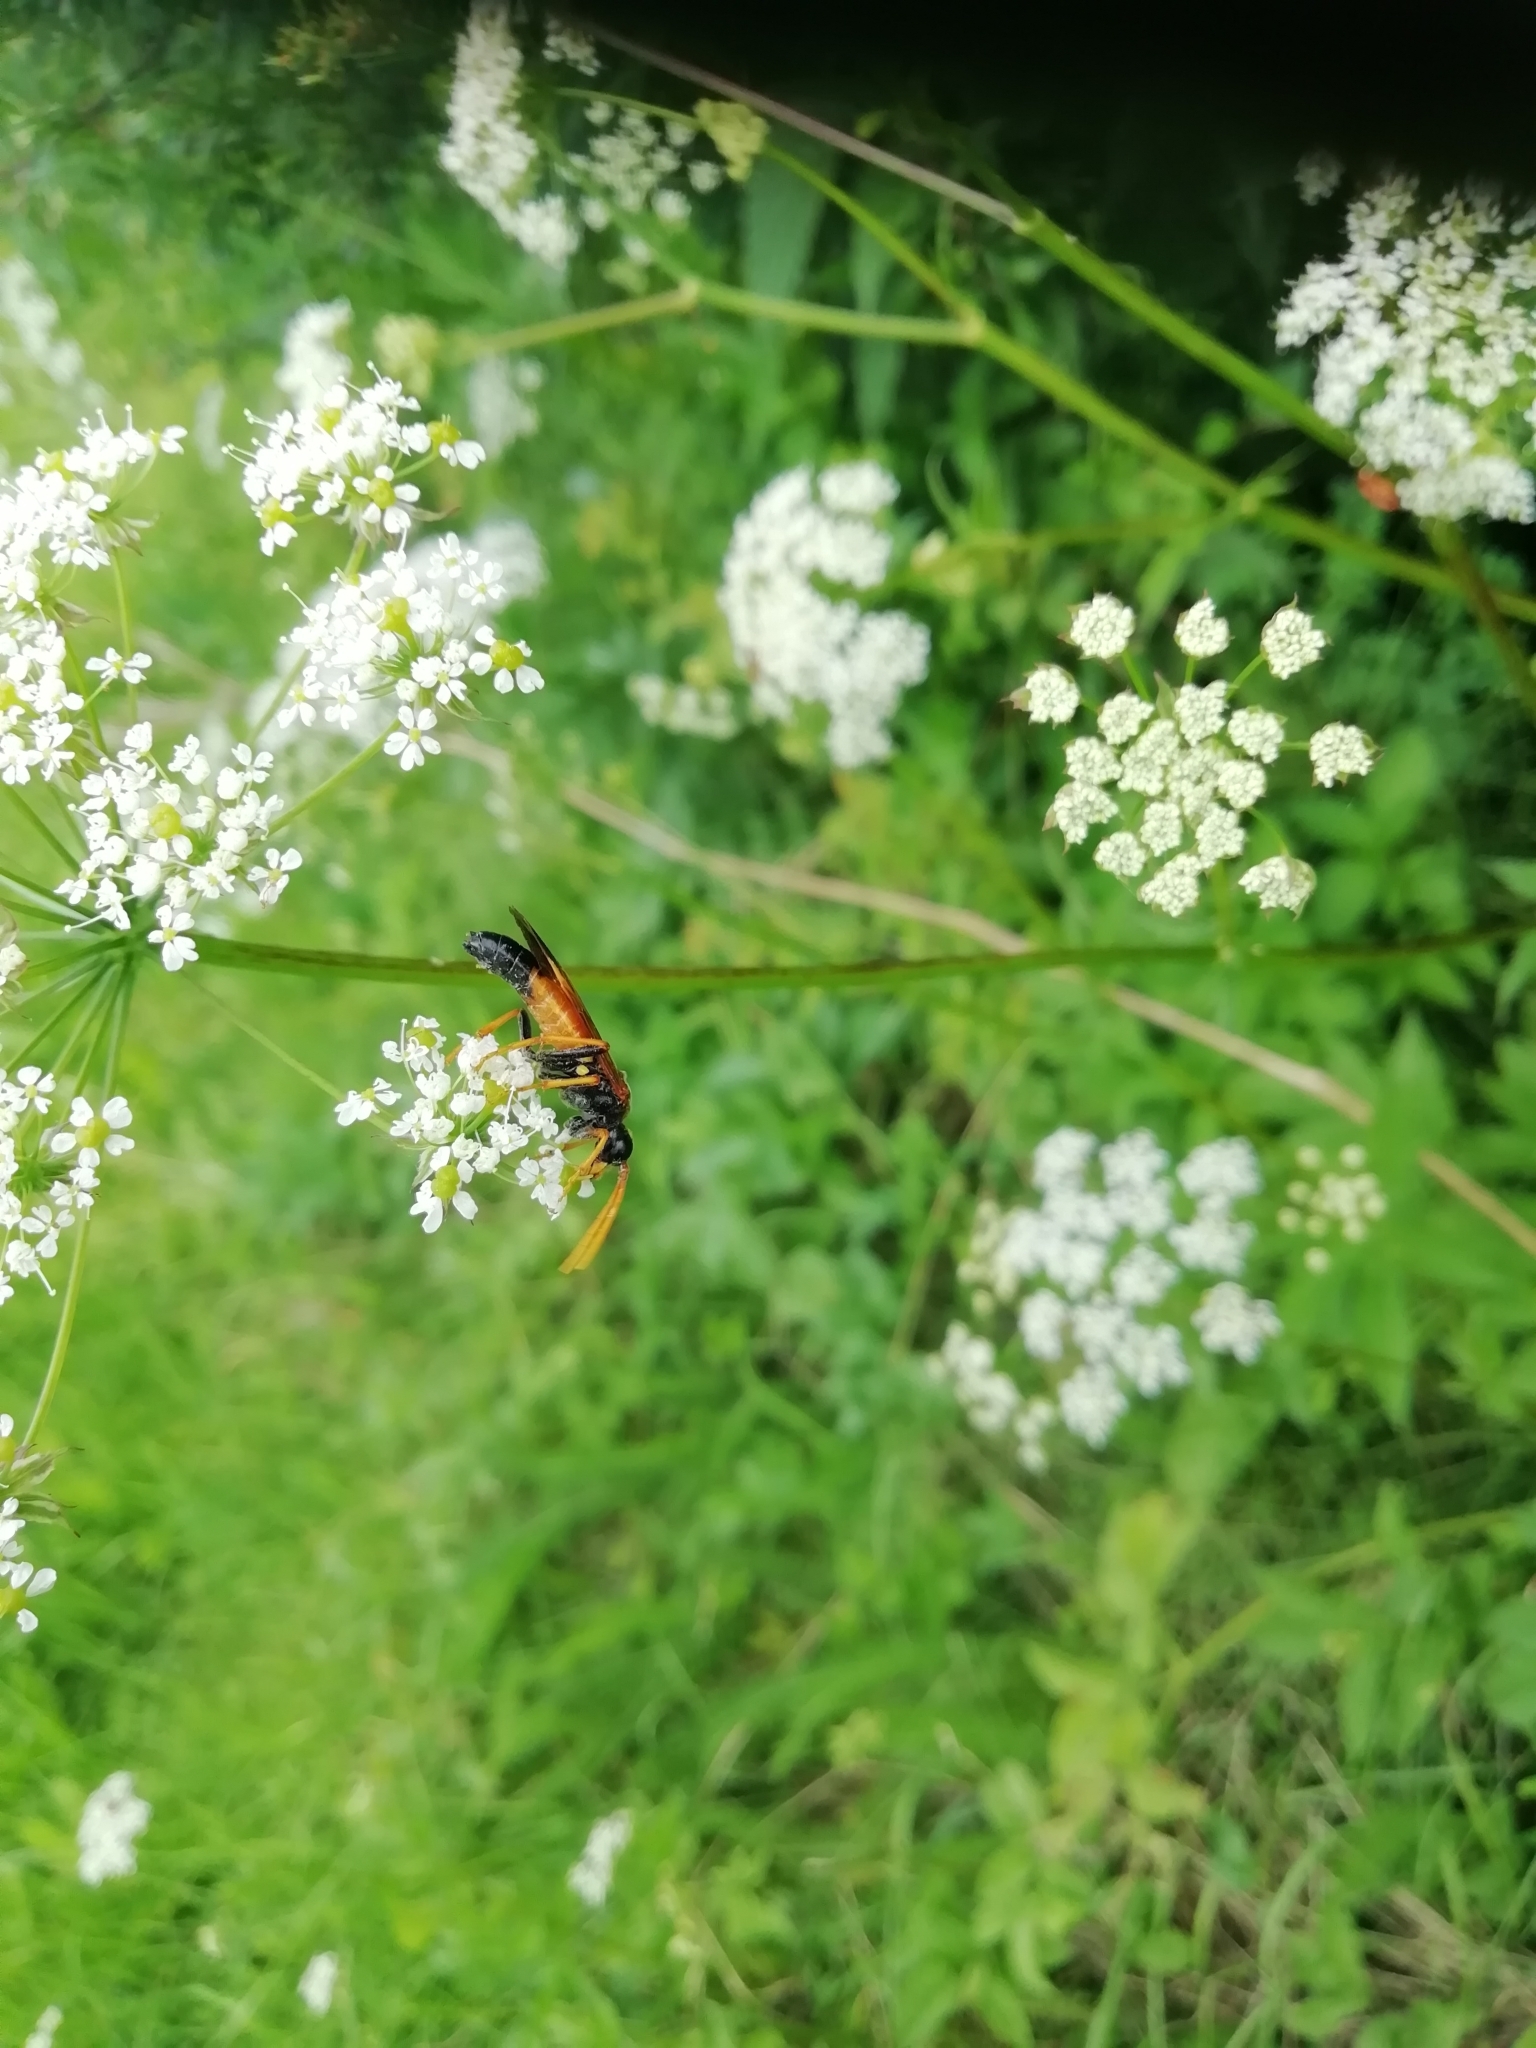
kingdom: Animalia
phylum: Arthropoda
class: Insecta
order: Hymenoptera
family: Tenthredinidae
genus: Tenthredo
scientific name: Tenthredo campestris
